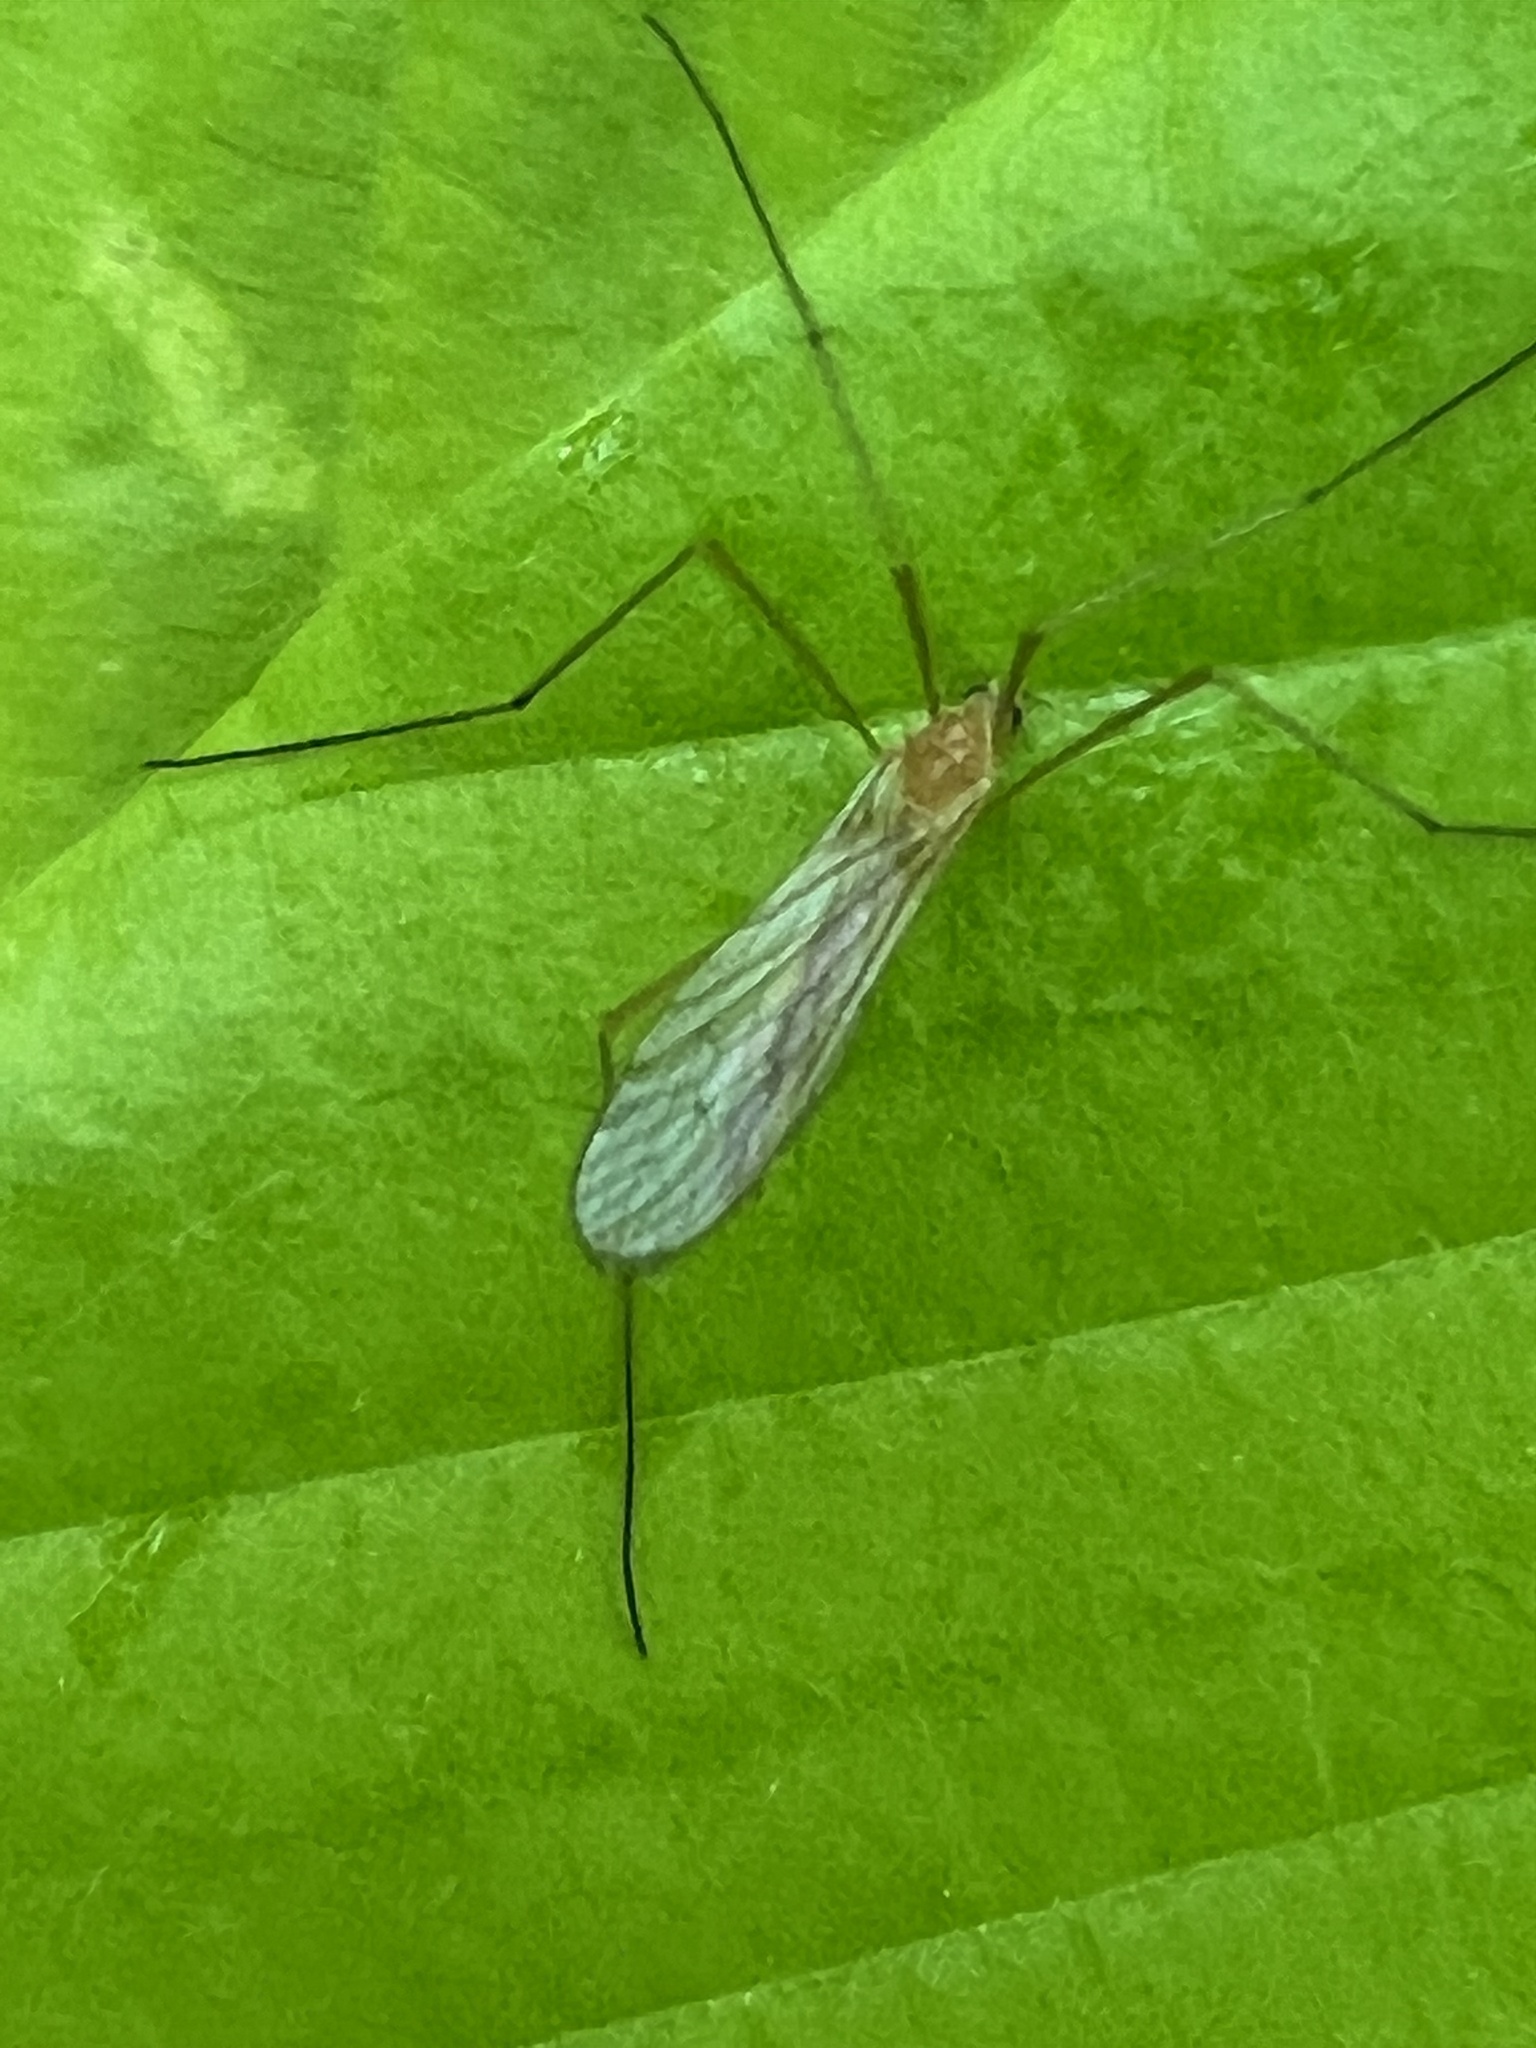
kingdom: Animalia
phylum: Arthropoda
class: Insecta
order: Diptera
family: Limoniidae
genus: Prolimnophila
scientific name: Prolimnophila areolata
